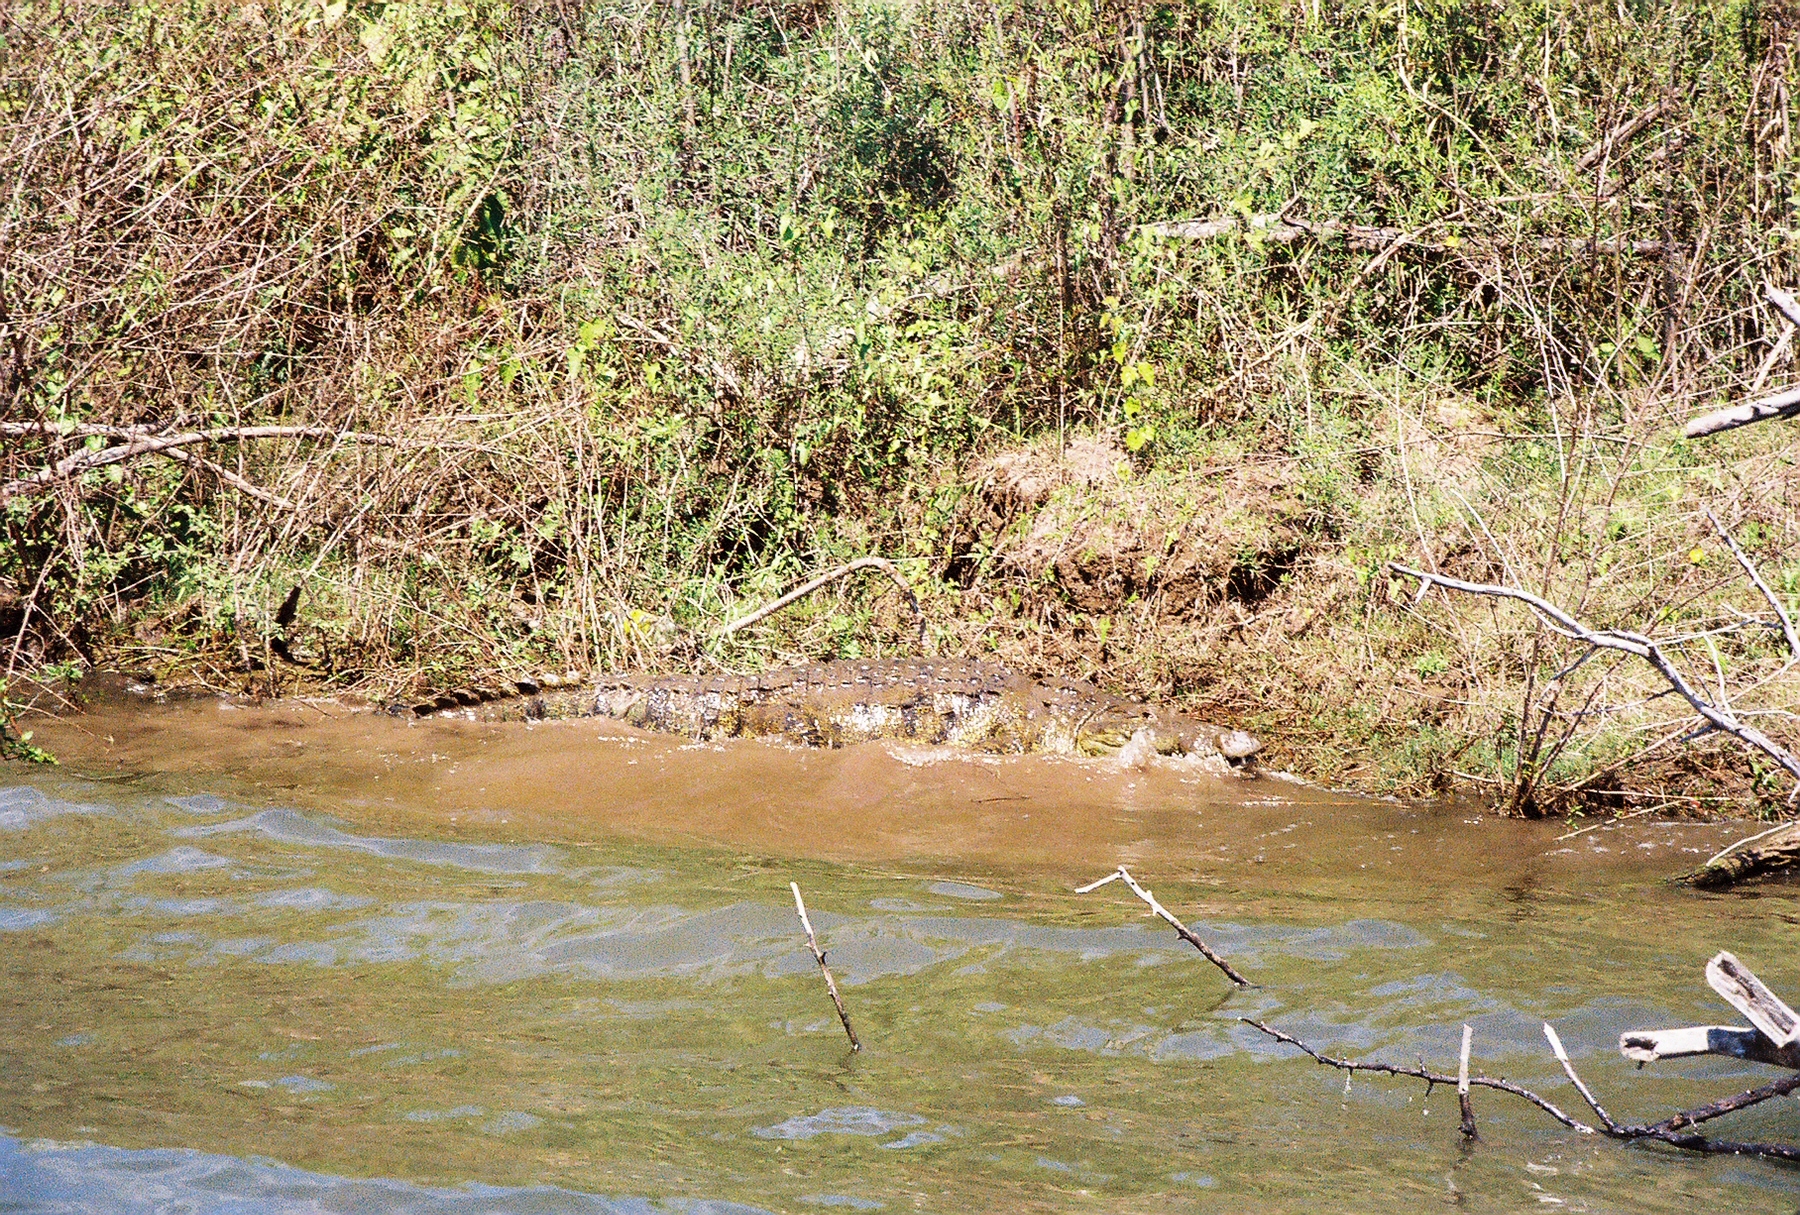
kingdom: Animalia
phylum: Chordata
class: Crocodylia
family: Crocodylidae
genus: Crocodylus
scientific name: Crocodylus moreletii
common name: Morelet's crocodile
